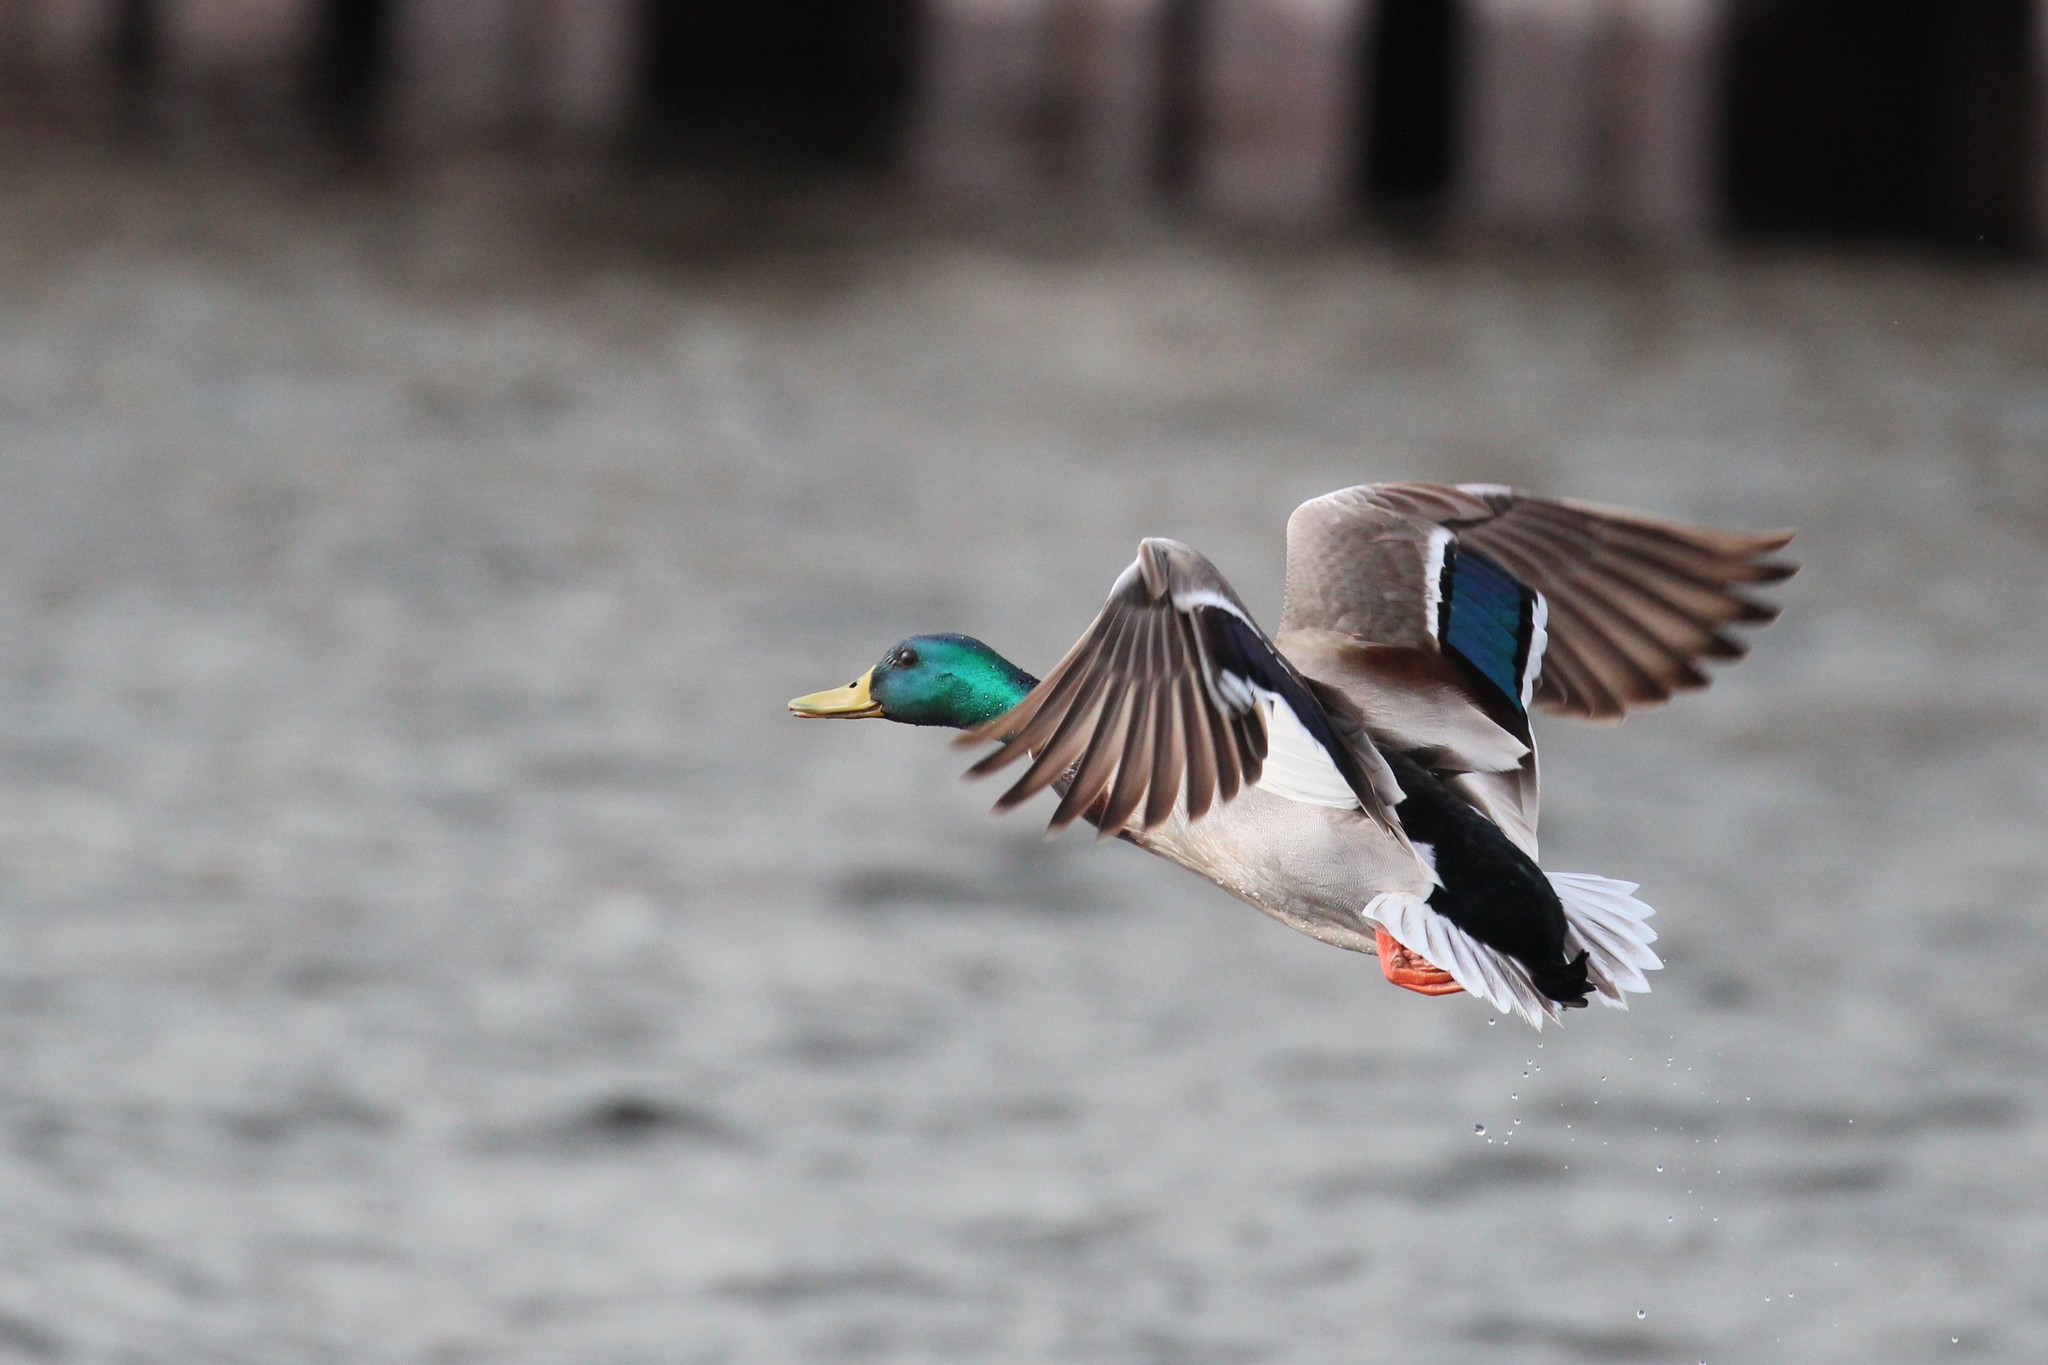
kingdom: Animalia
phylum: Chordata
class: Aves
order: Anseriformes
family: Anatidae
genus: Anas
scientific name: Anas platyrhynchos
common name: Mallard
